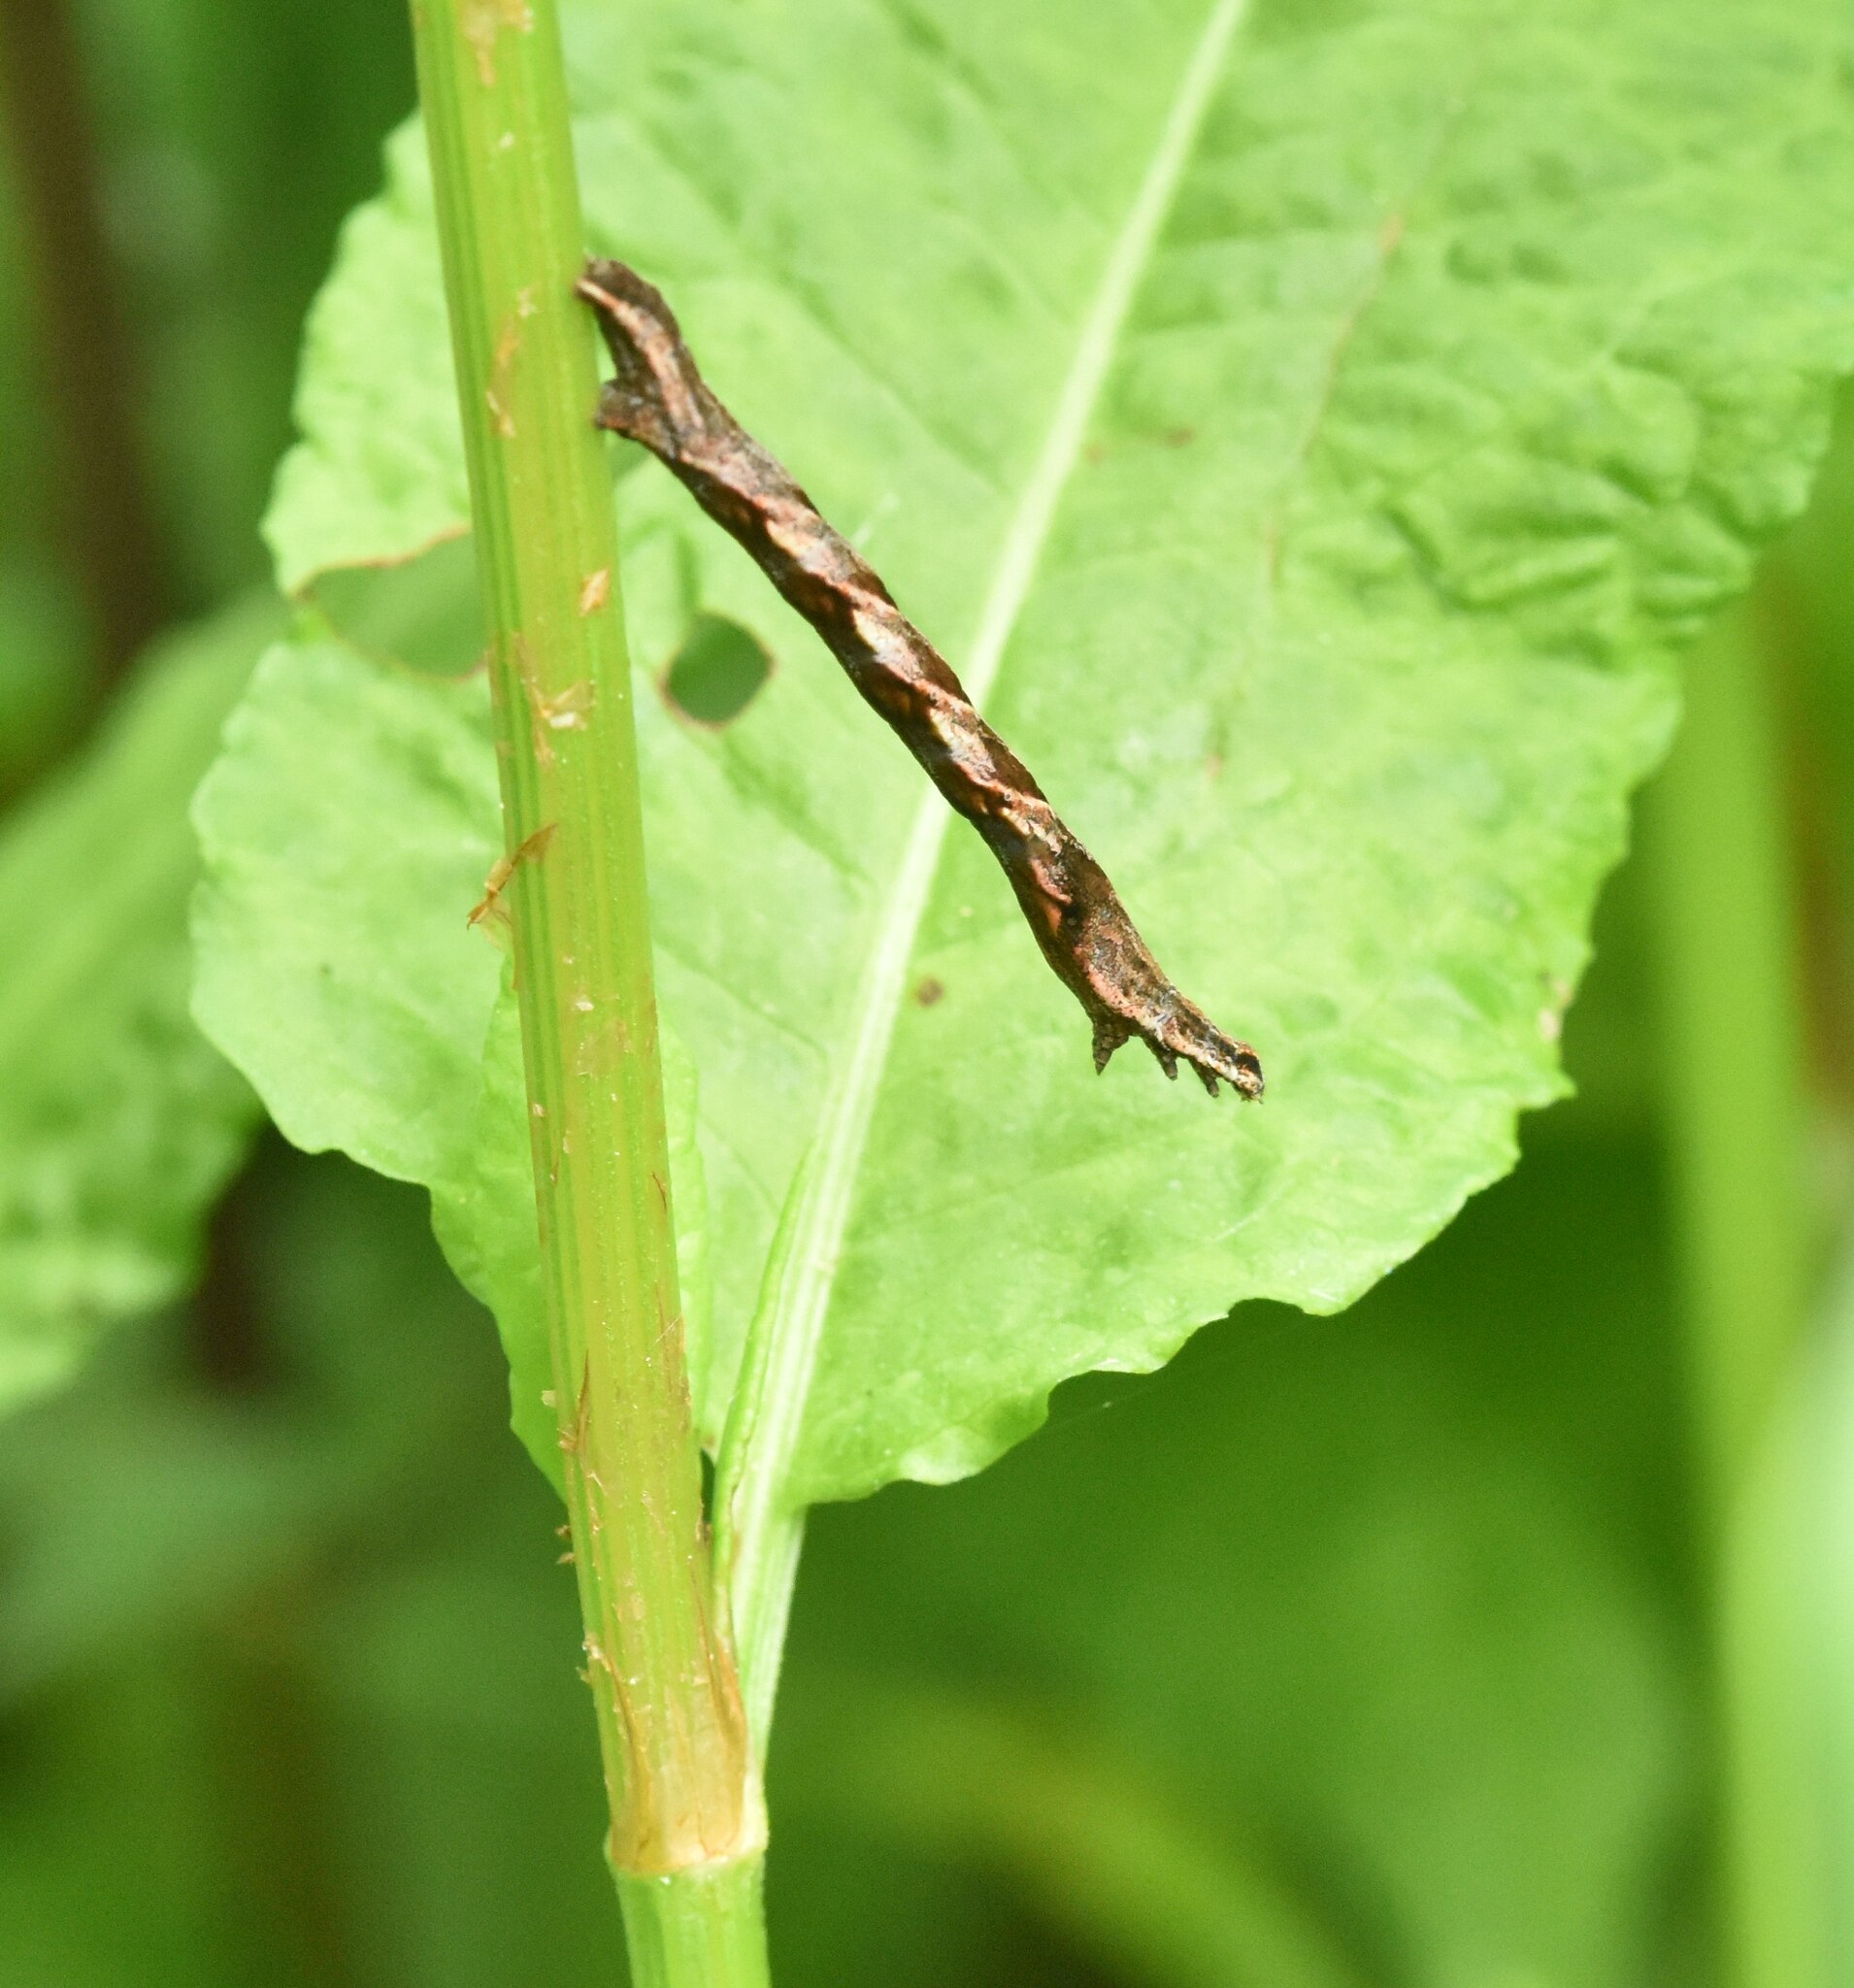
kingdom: Animalia
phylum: Arthropoda
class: Insecta
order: Lepidoptera
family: Geometridae
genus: Timandra
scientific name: Timandra comae
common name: Blood-vein
